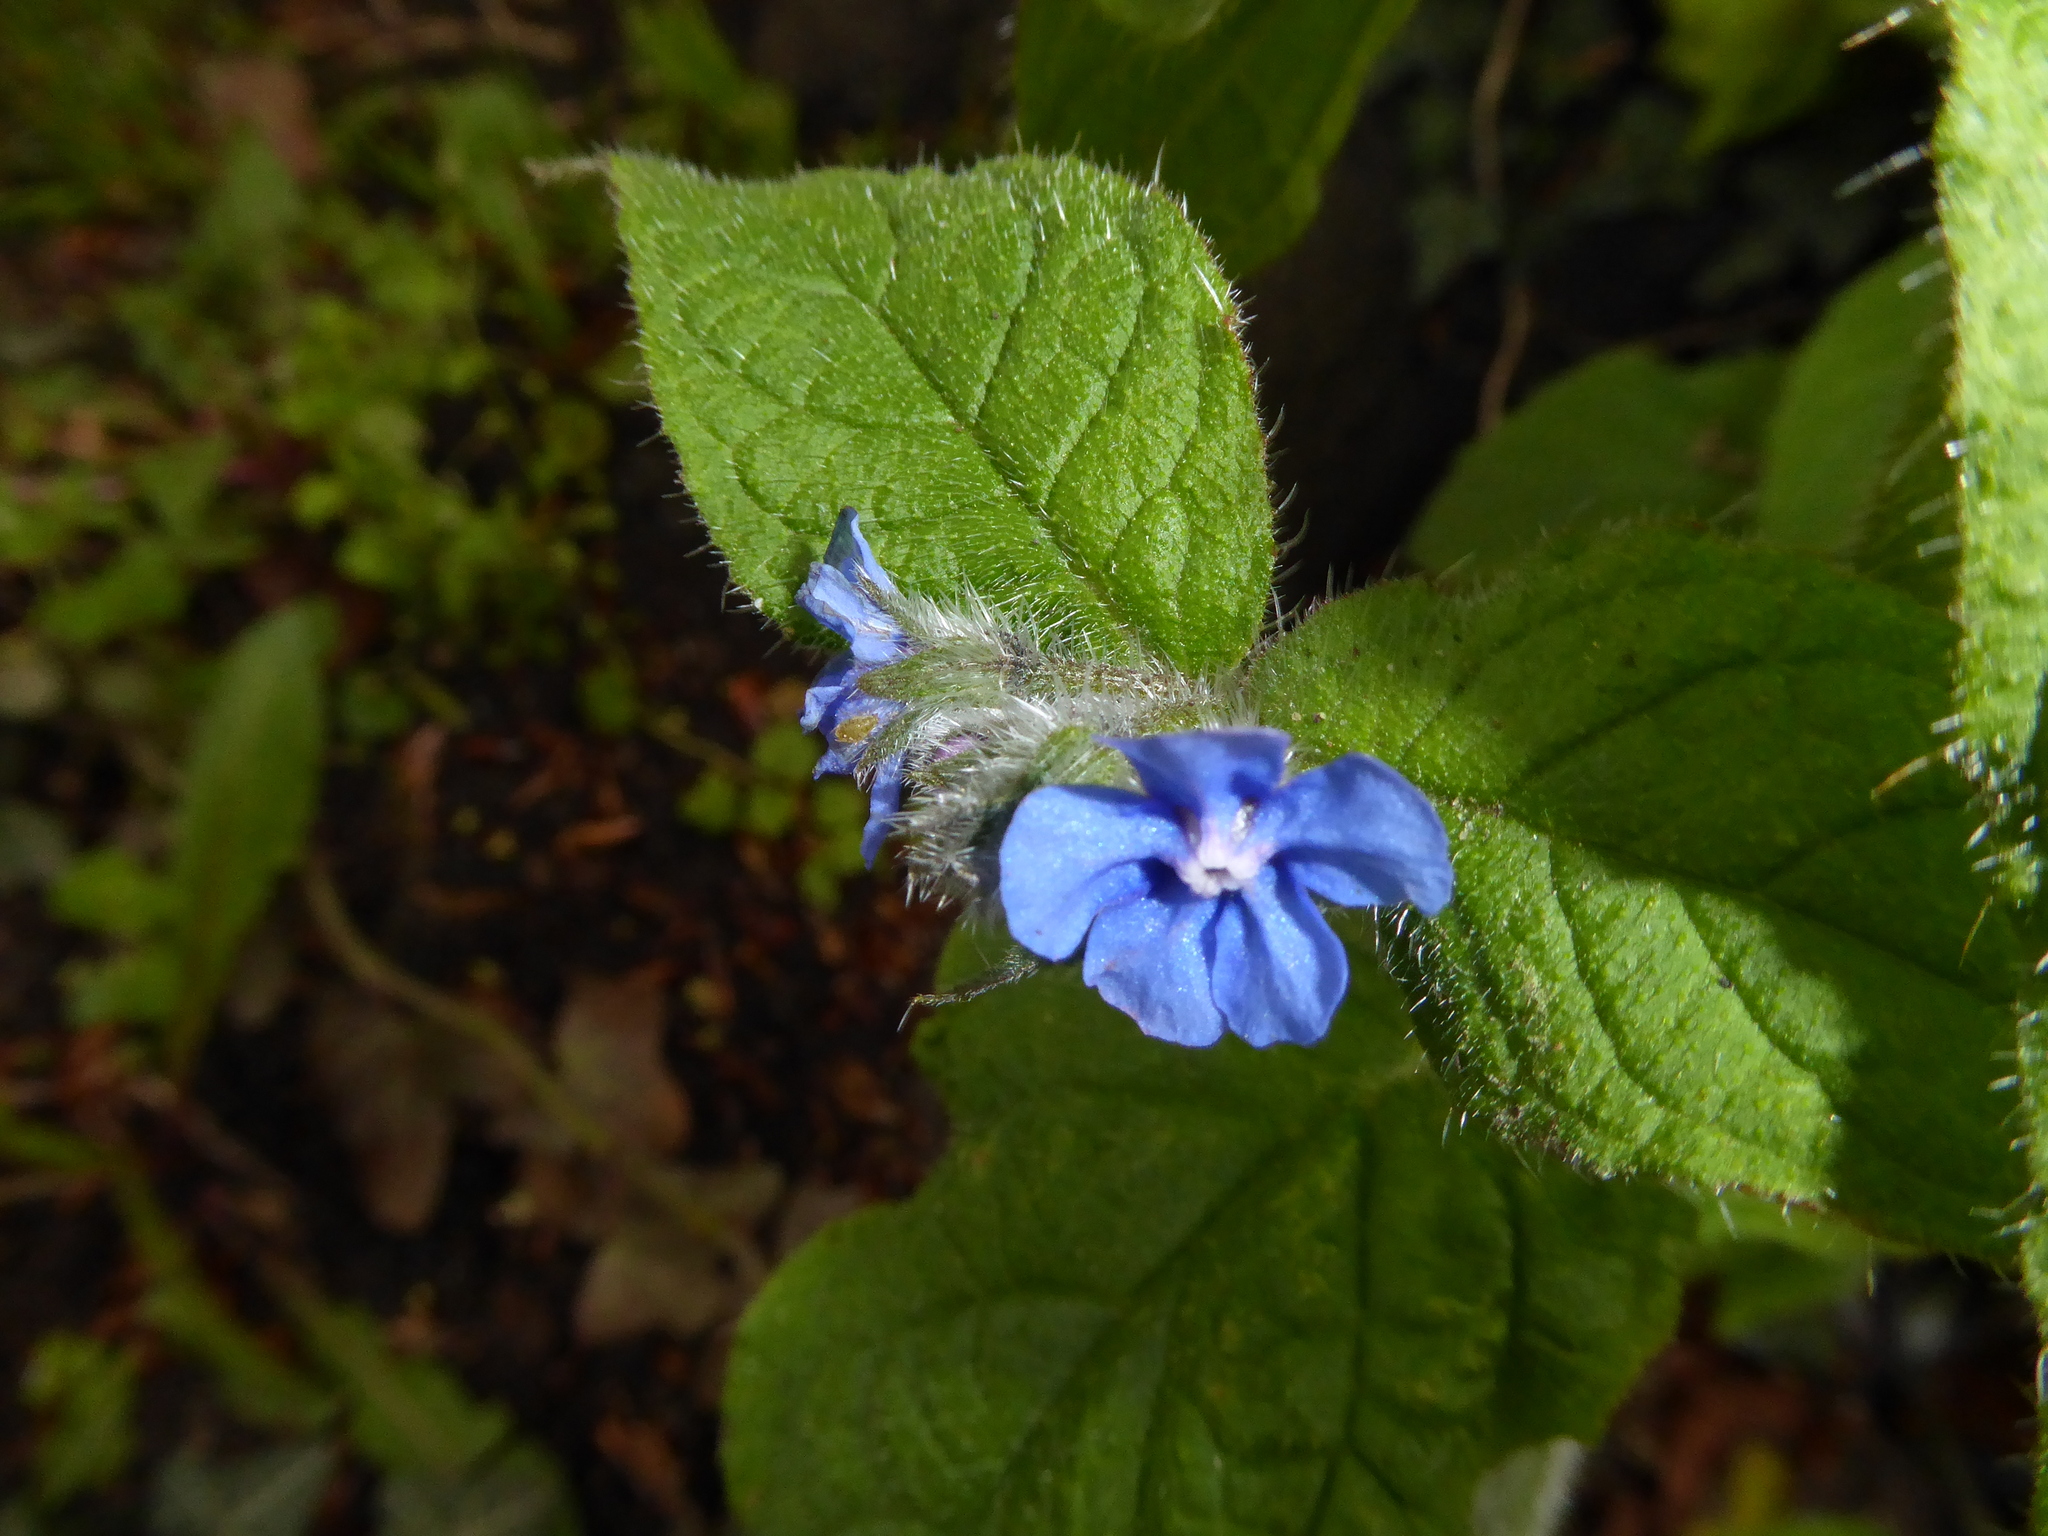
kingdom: Plantae
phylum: Tracheophyta
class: Magnoliopsida
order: Boraginales
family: Boraginaceae
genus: Pentaglottis
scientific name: Pentaglottis sempervirens
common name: Green alkanet
